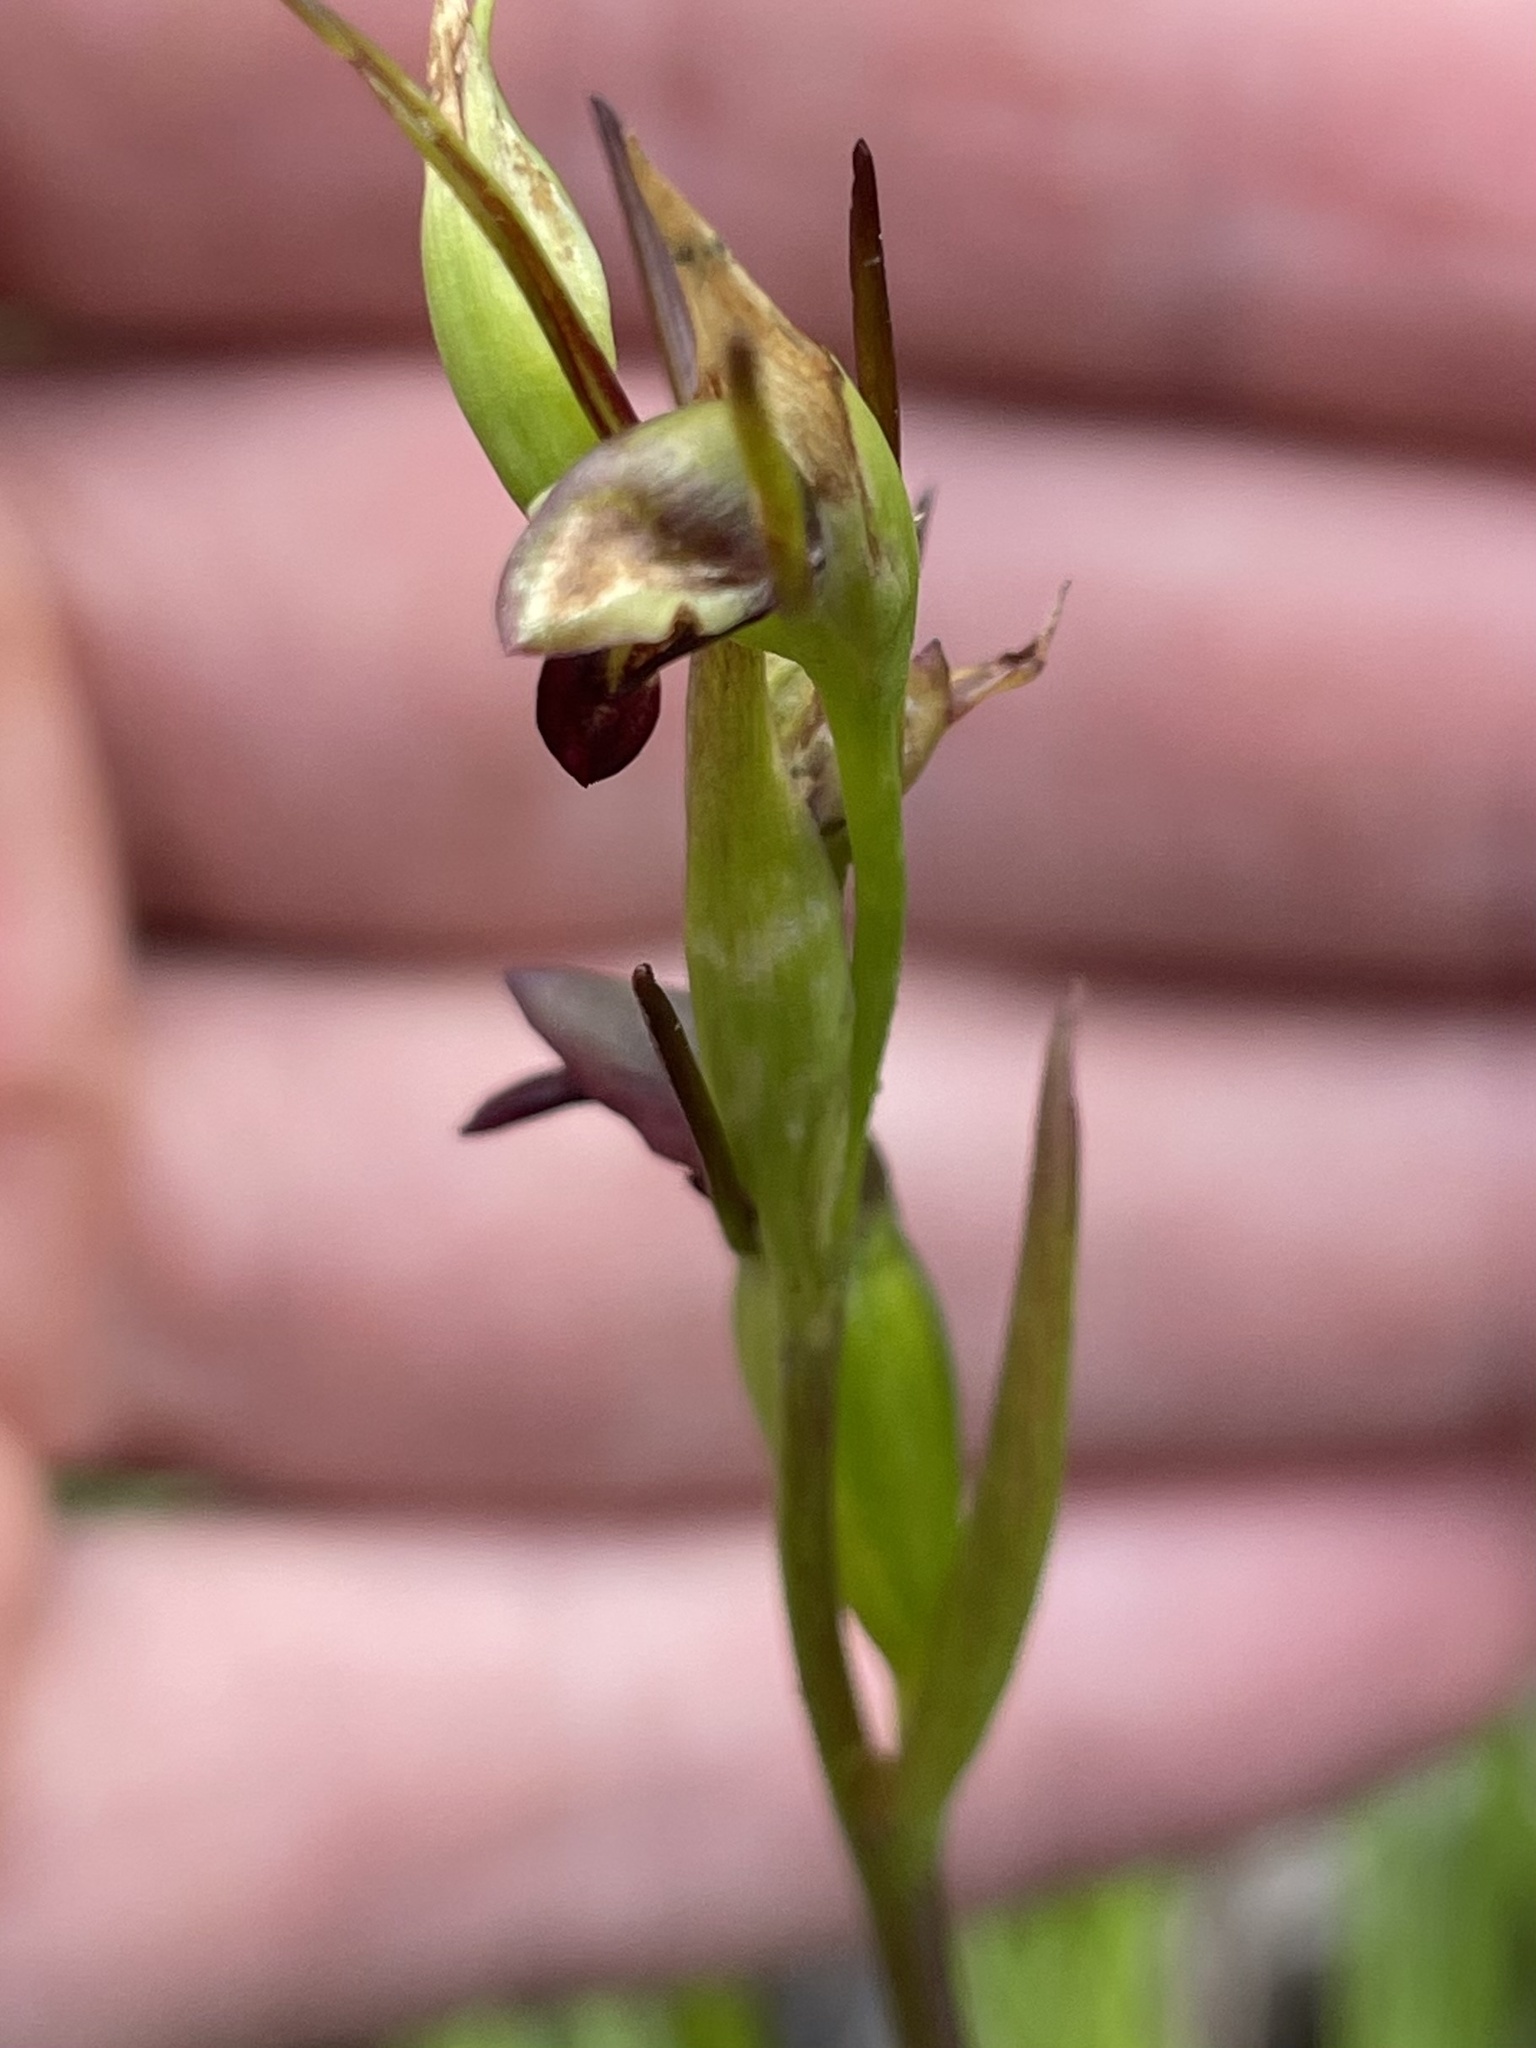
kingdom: Plantae
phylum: Tracheophyta
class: Liliopsida
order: Asparagales
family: Orchidaceae
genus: Orthoceras
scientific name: Orthoceras novae-zeelandiae
